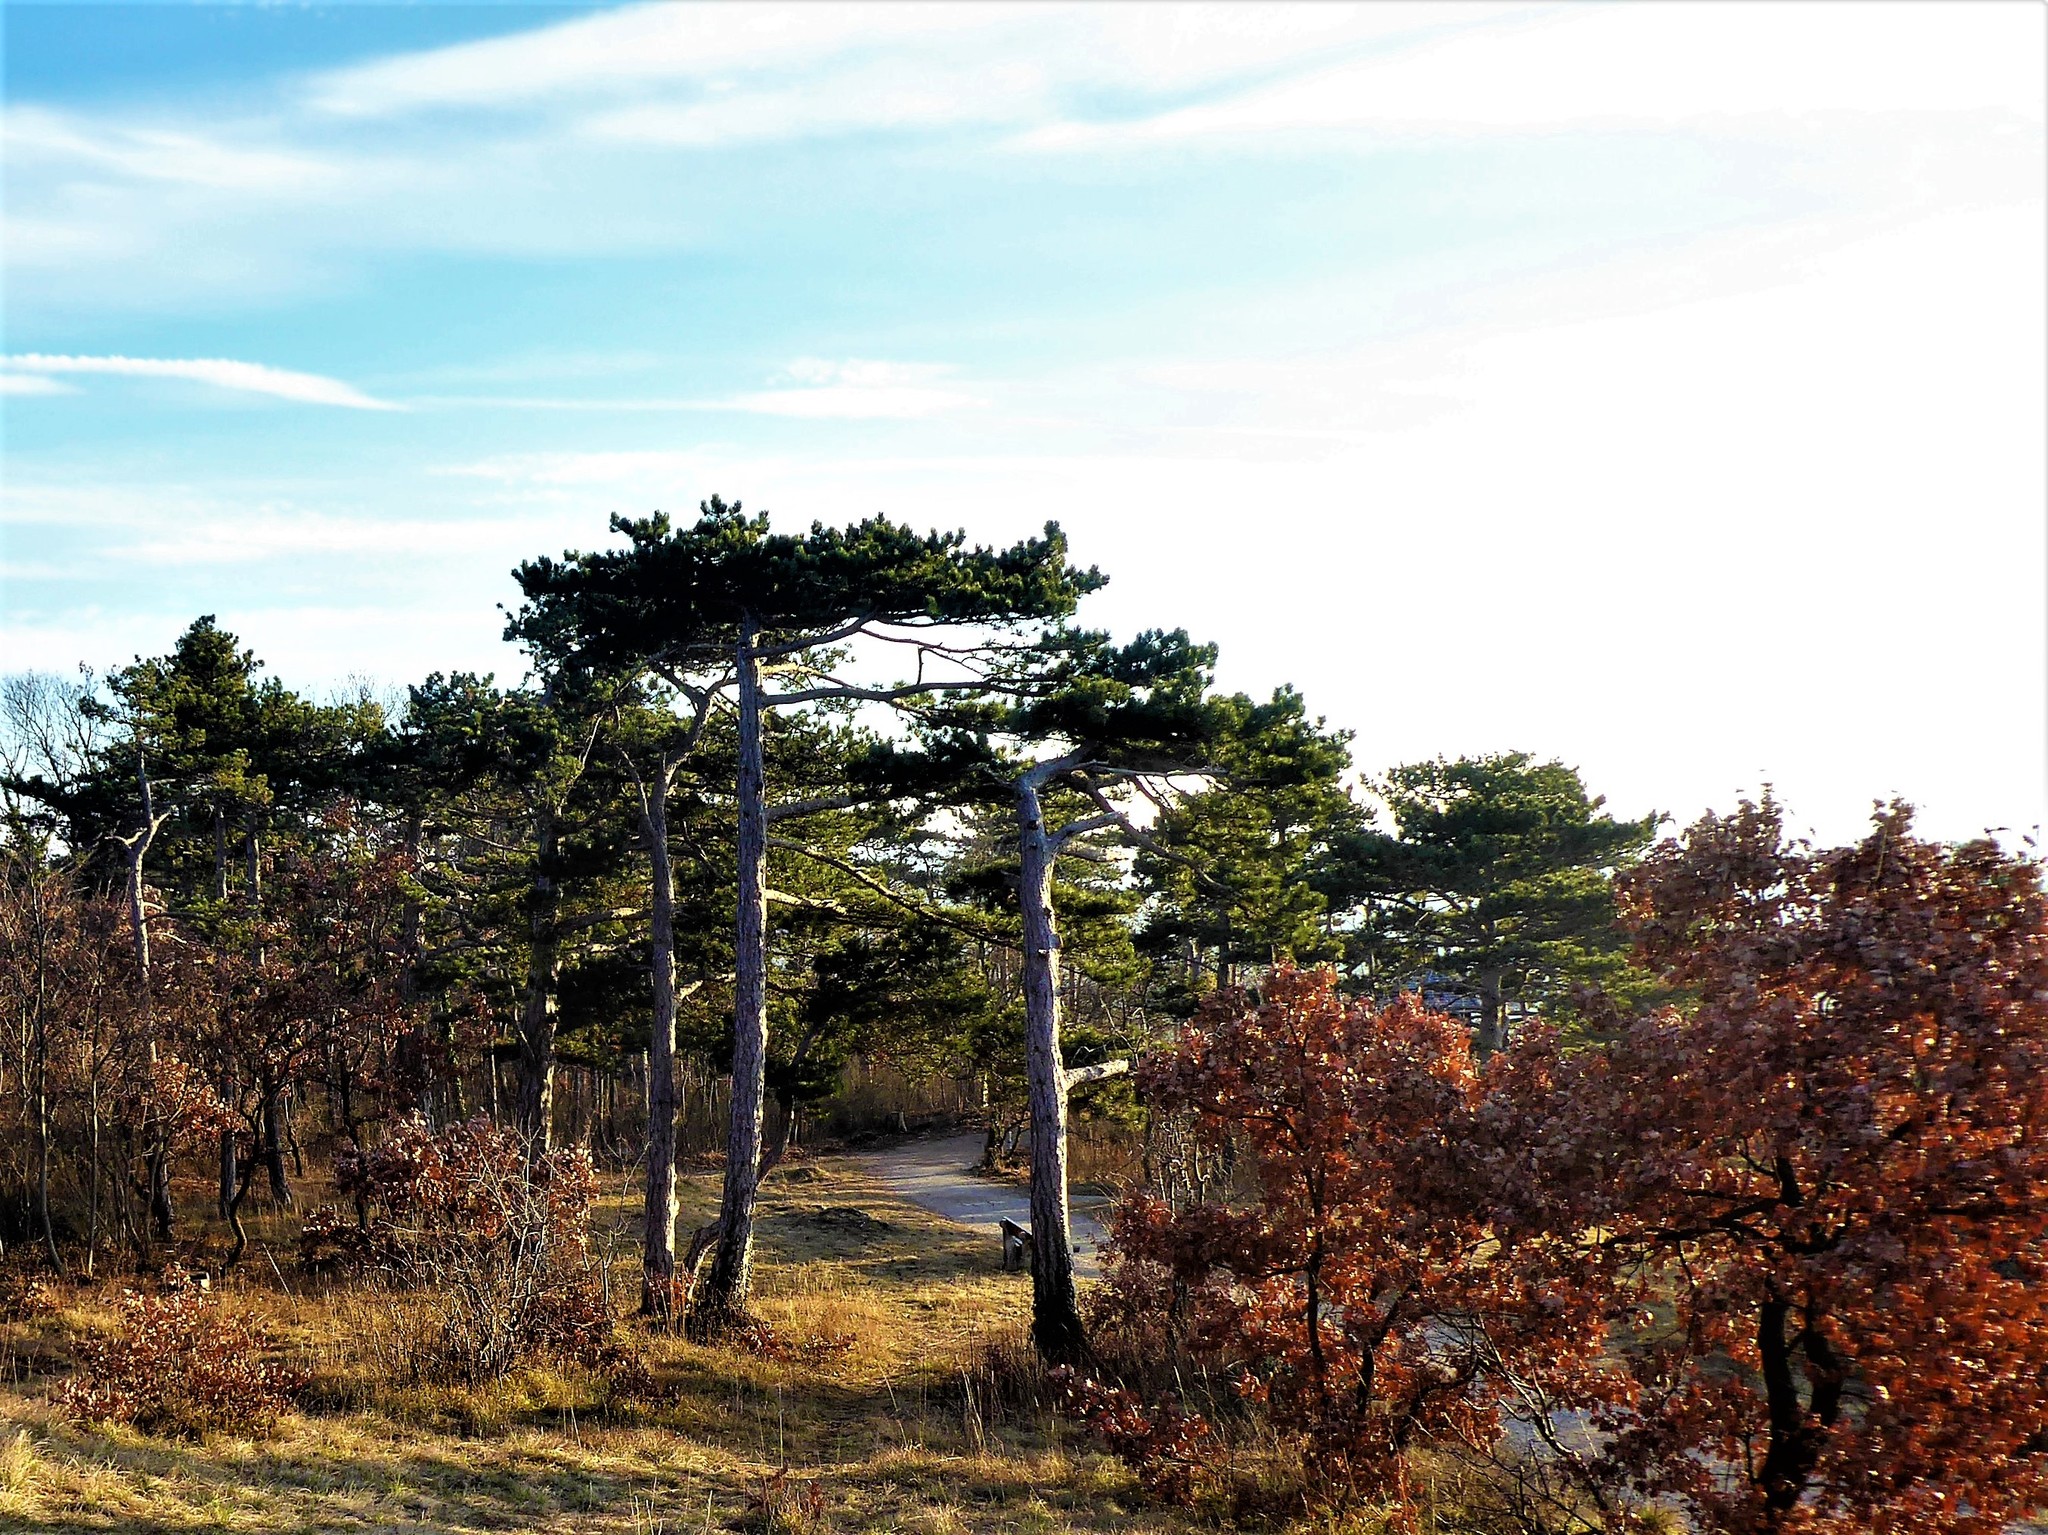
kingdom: Plantae
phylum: Tracheophyta
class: Pinopsida
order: Pinales
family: Pinaceae
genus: Pinus
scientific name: Pinus nigra
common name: Austrian pine
